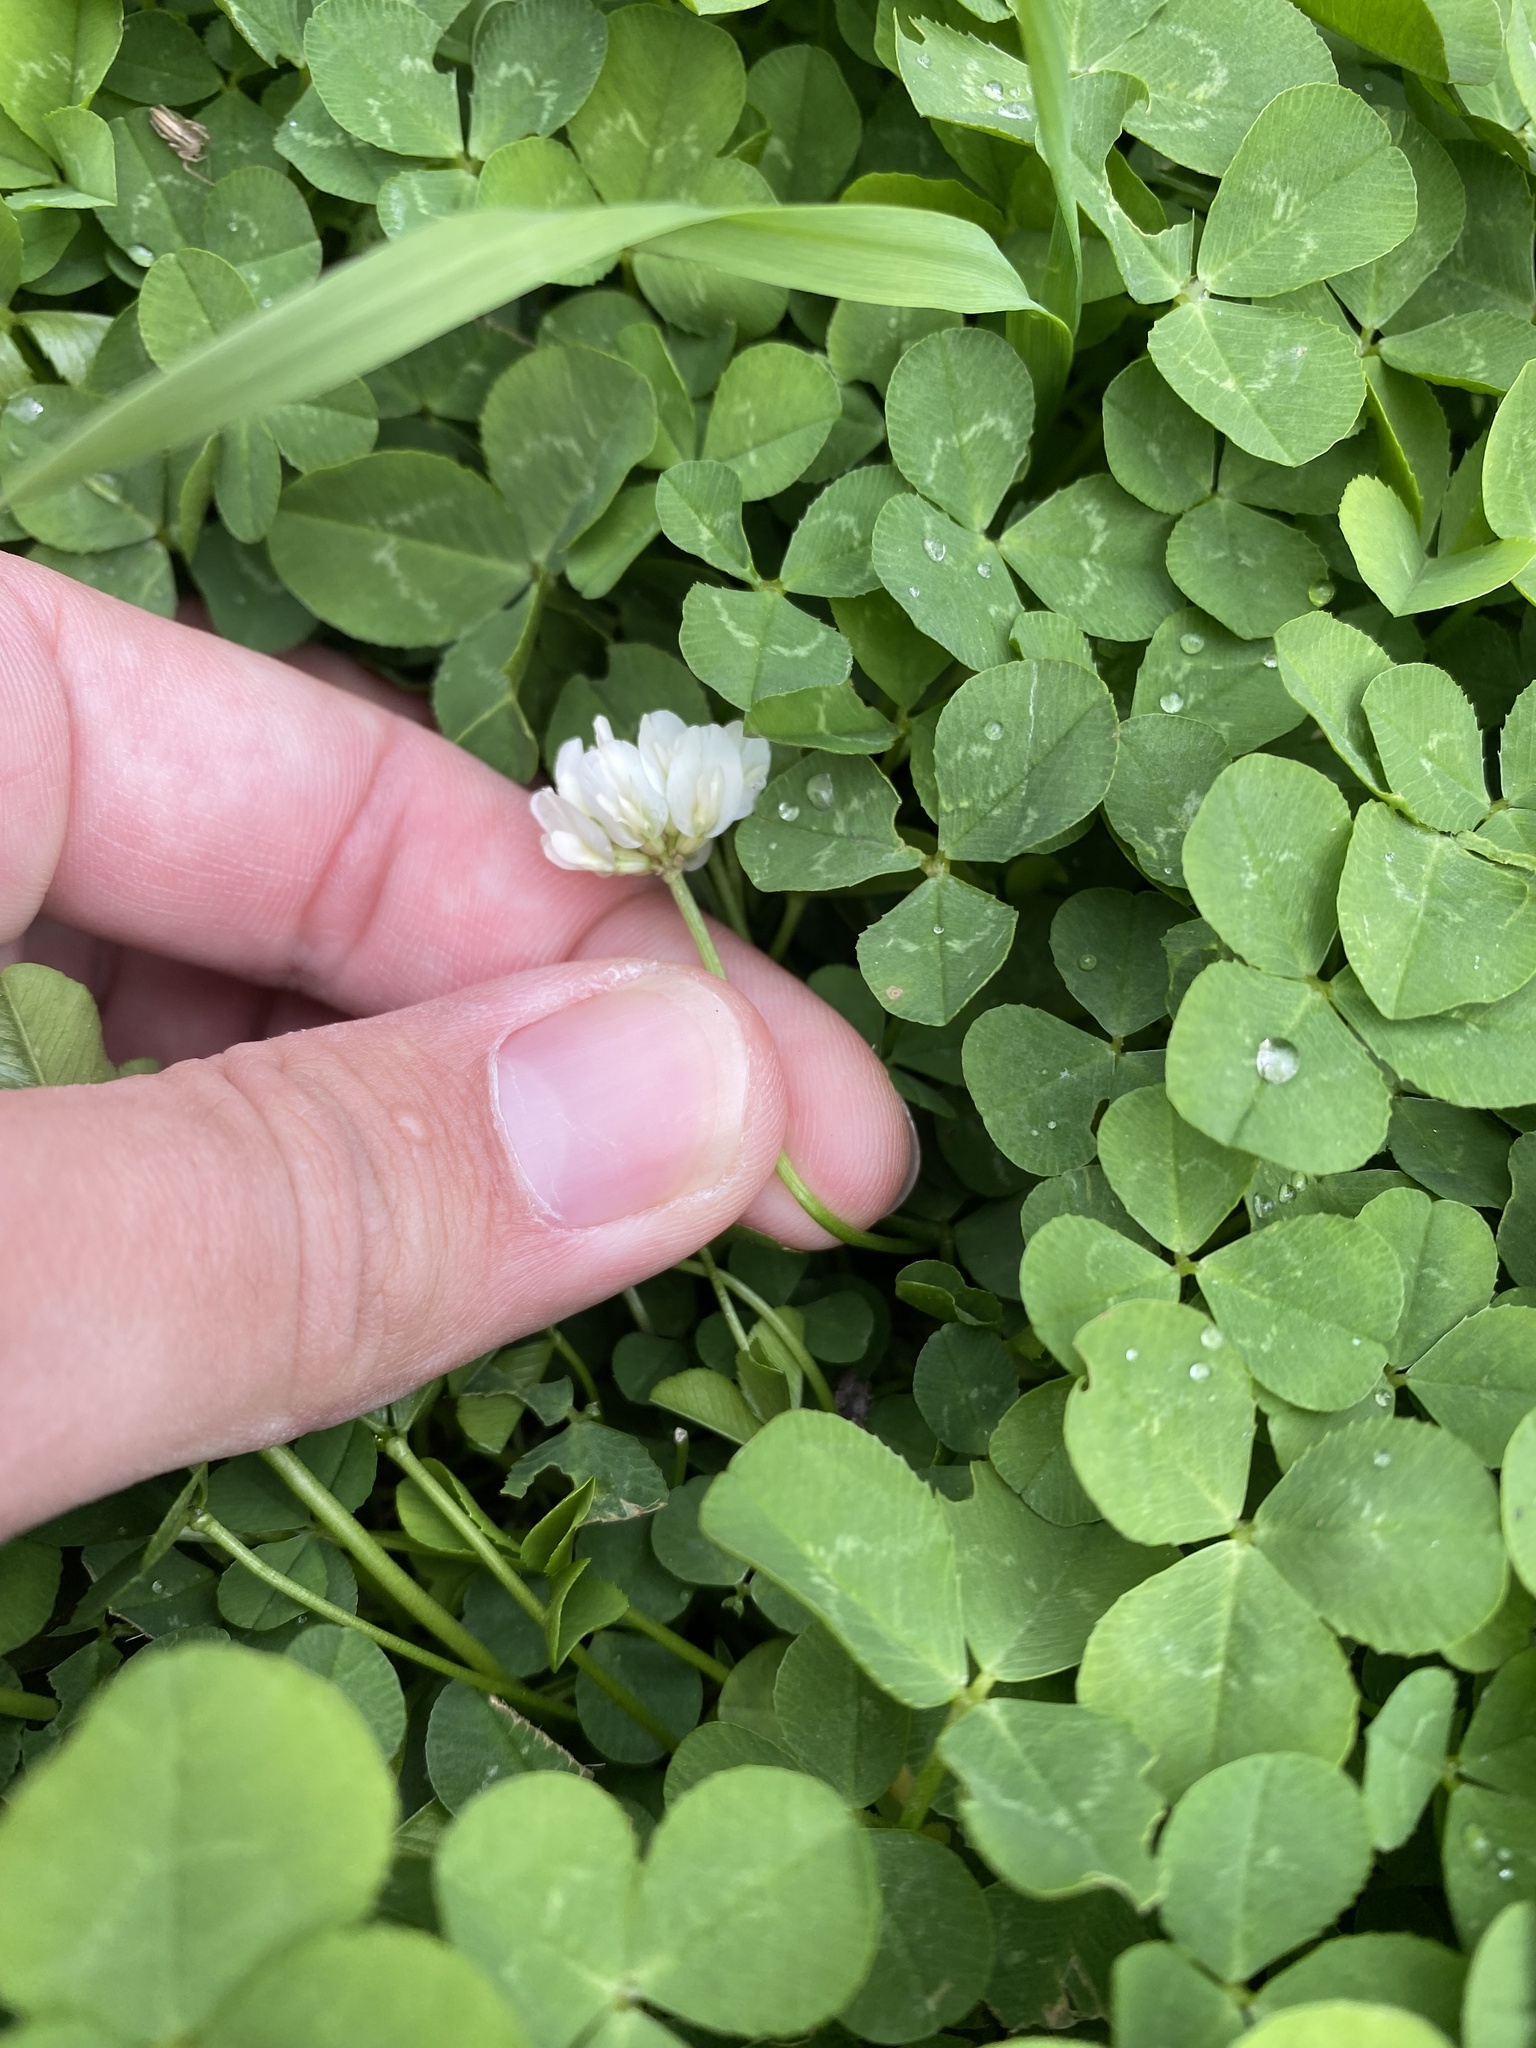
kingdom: Plantae
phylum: Tracheophyta
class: Magnoliopsida
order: Fabales
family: Fabaceae
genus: Trifolium
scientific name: Trifolium repens
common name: White clover
